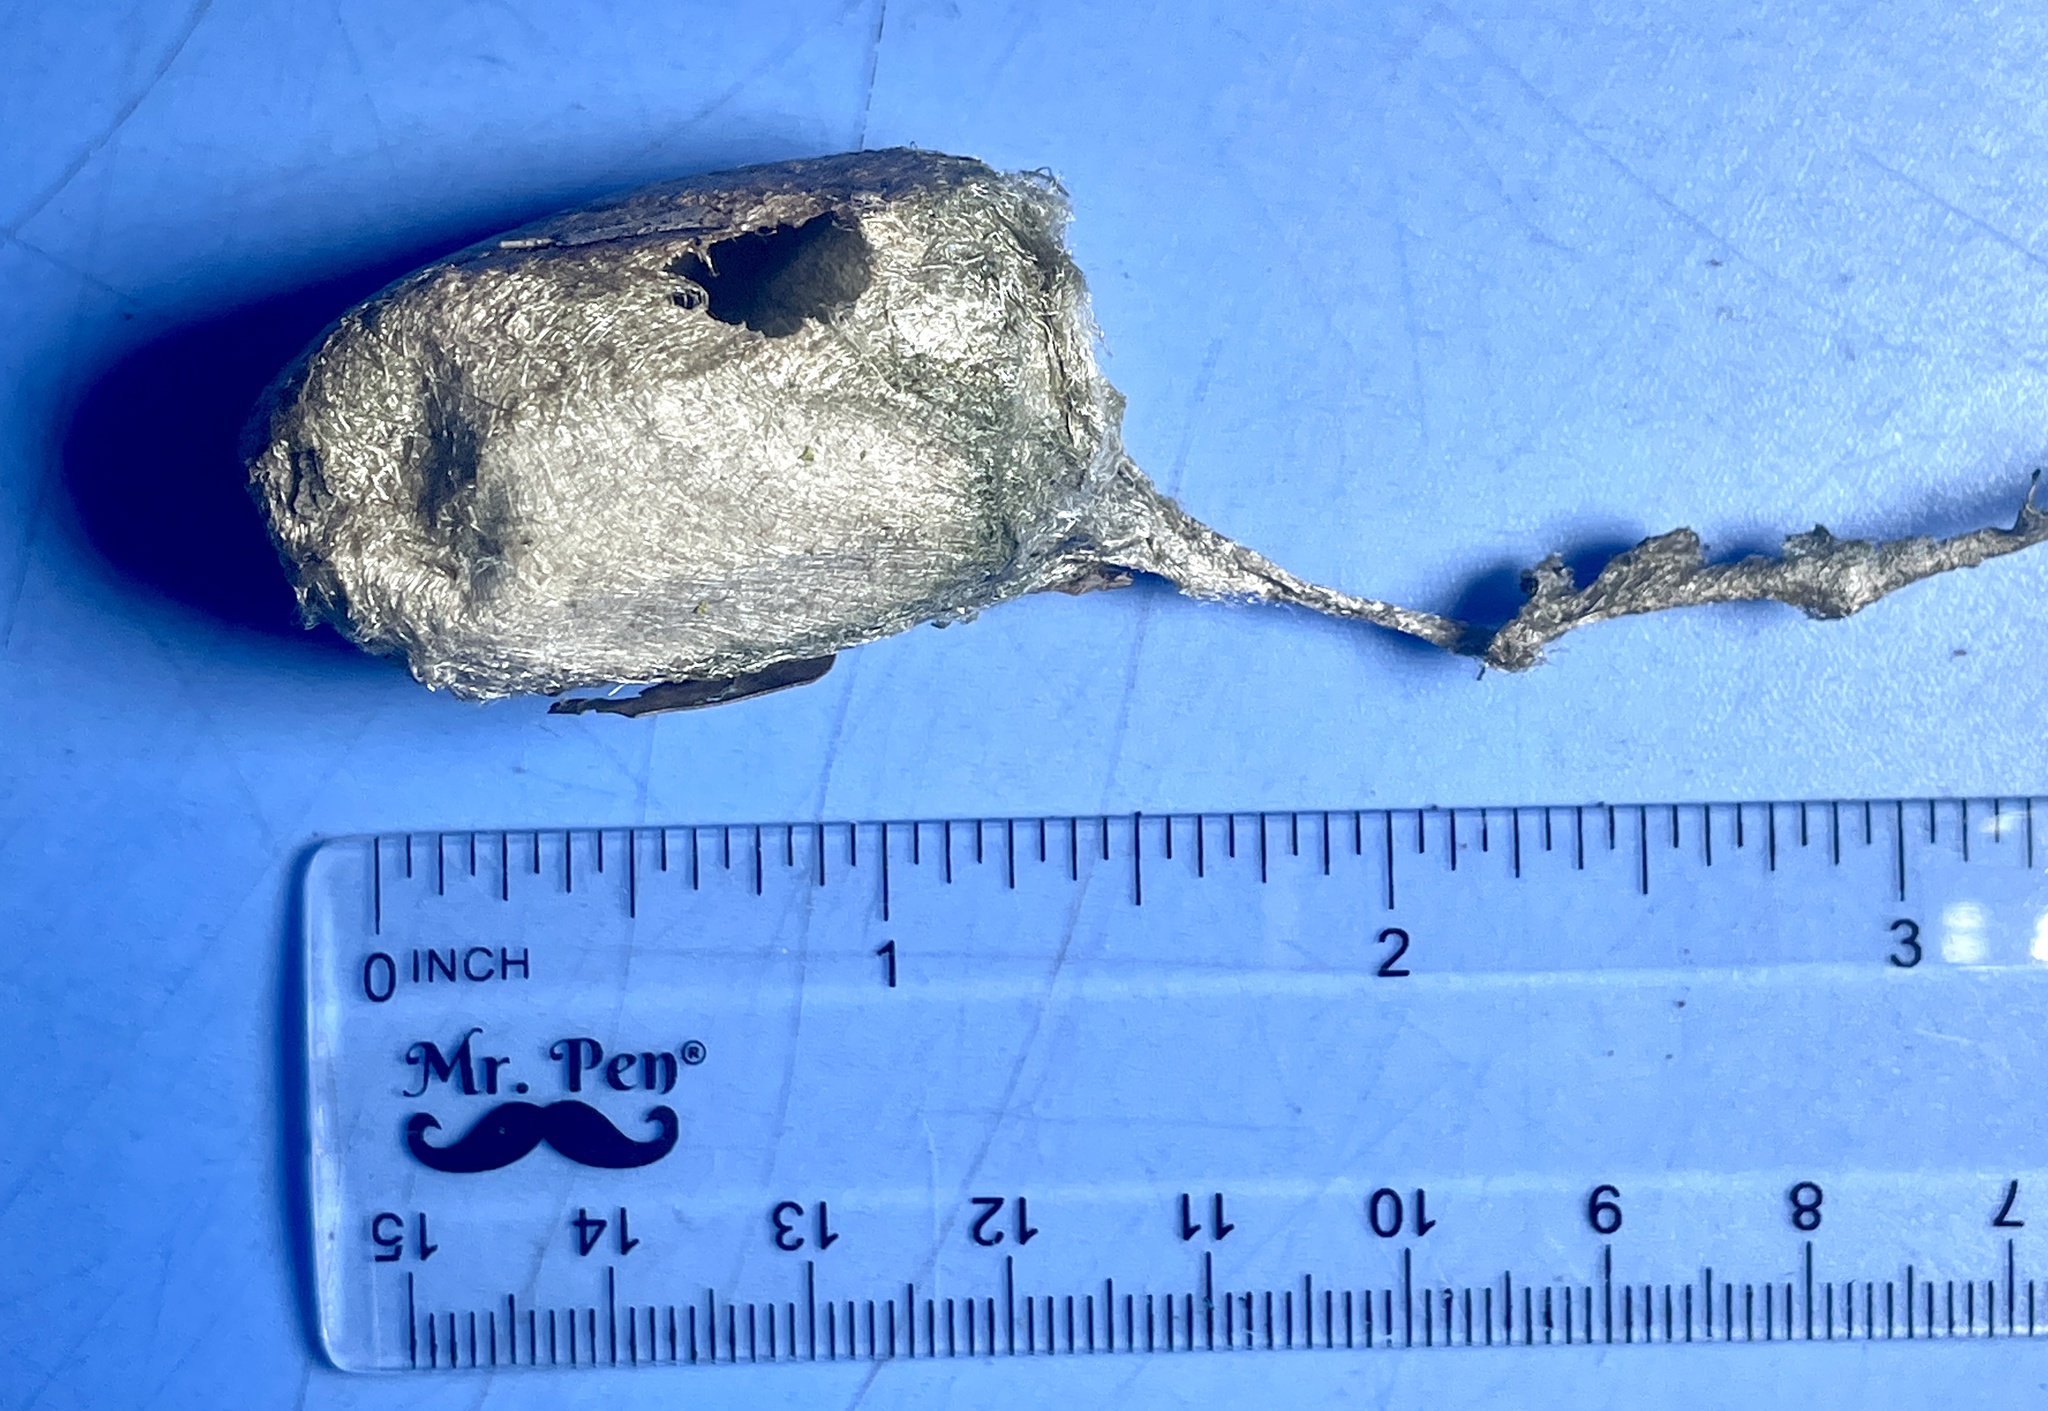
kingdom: Animalia
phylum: Arthropoda
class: Insecta
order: Lepidoptera
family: Saturniidae
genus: Antheraea
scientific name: Antheraea polyphemus
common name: Polyphemus moth
